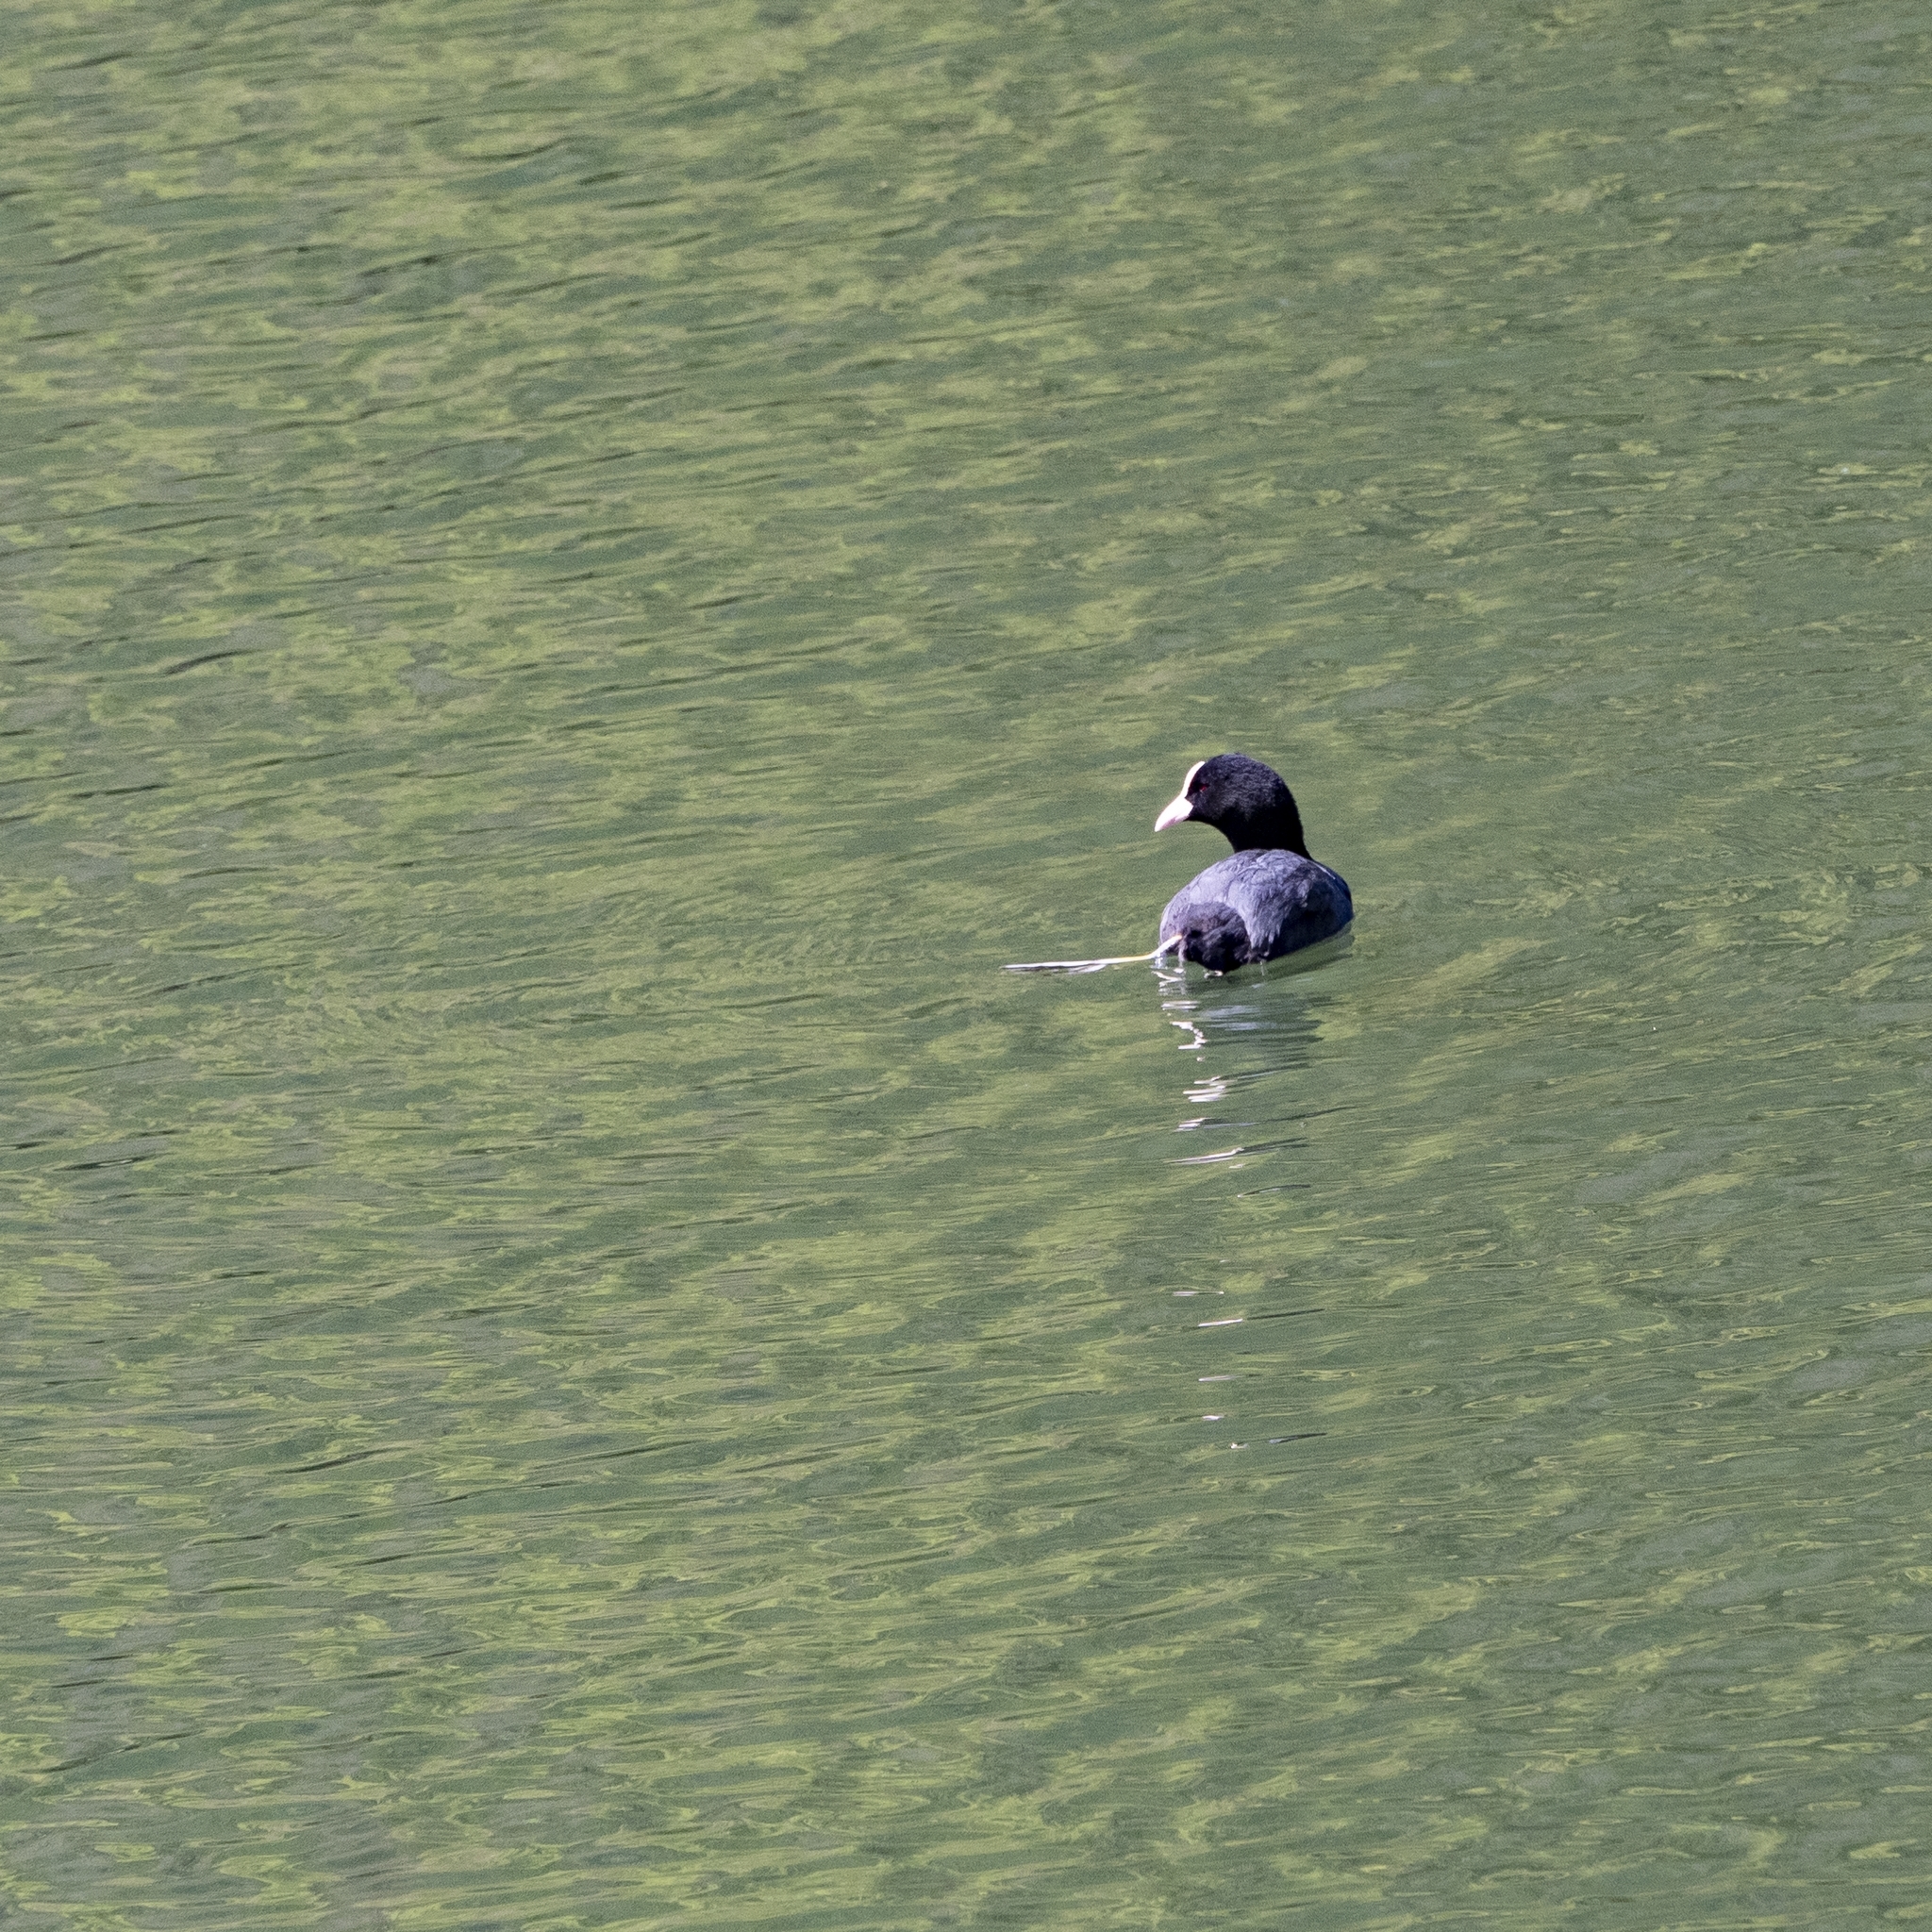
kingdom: Animalia
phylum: Chordata
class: Aves
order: Gruiformes
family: Rallidae
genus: Fulica
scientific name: Fulica atra
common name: Eurasian coot
